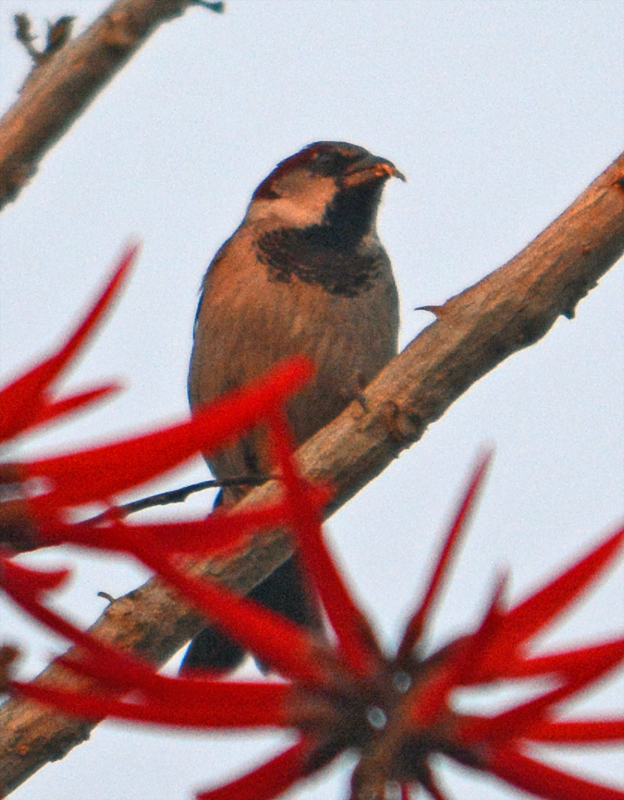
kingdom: Animalia
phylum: Chordata
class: Aves
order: Passeriformes
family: Passeridae
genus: Passer
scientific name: Passer domesticus
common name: House sparrow
